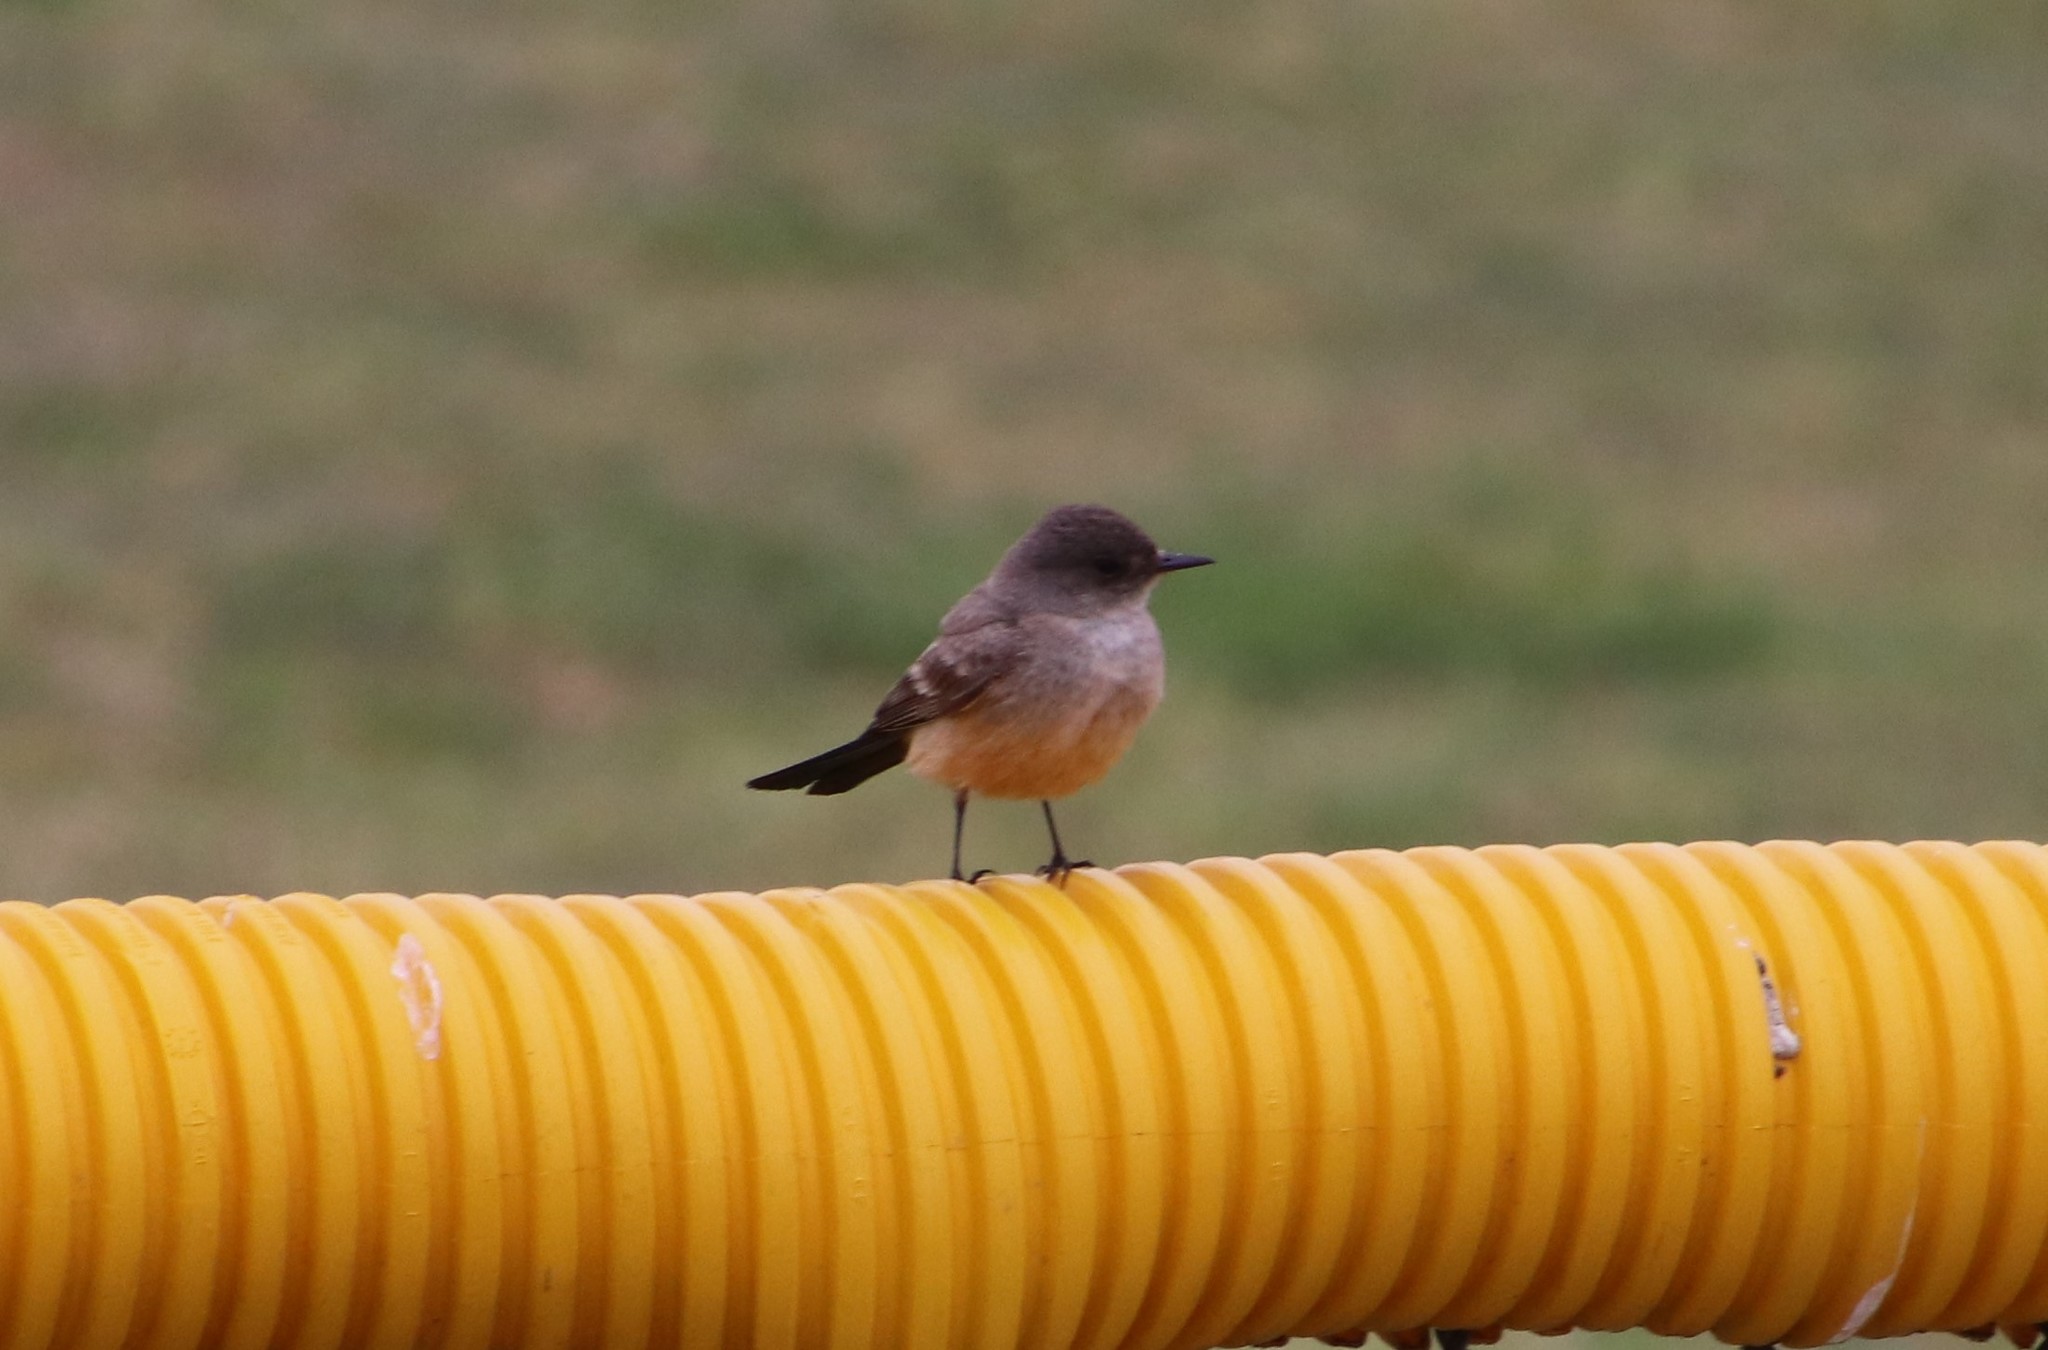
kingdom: Animalia
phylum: Chordata
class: Aves
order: Passeriformes
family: Tyrannidae
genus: Sayornis
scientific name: Sayornis saya
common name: Say's phoebe
